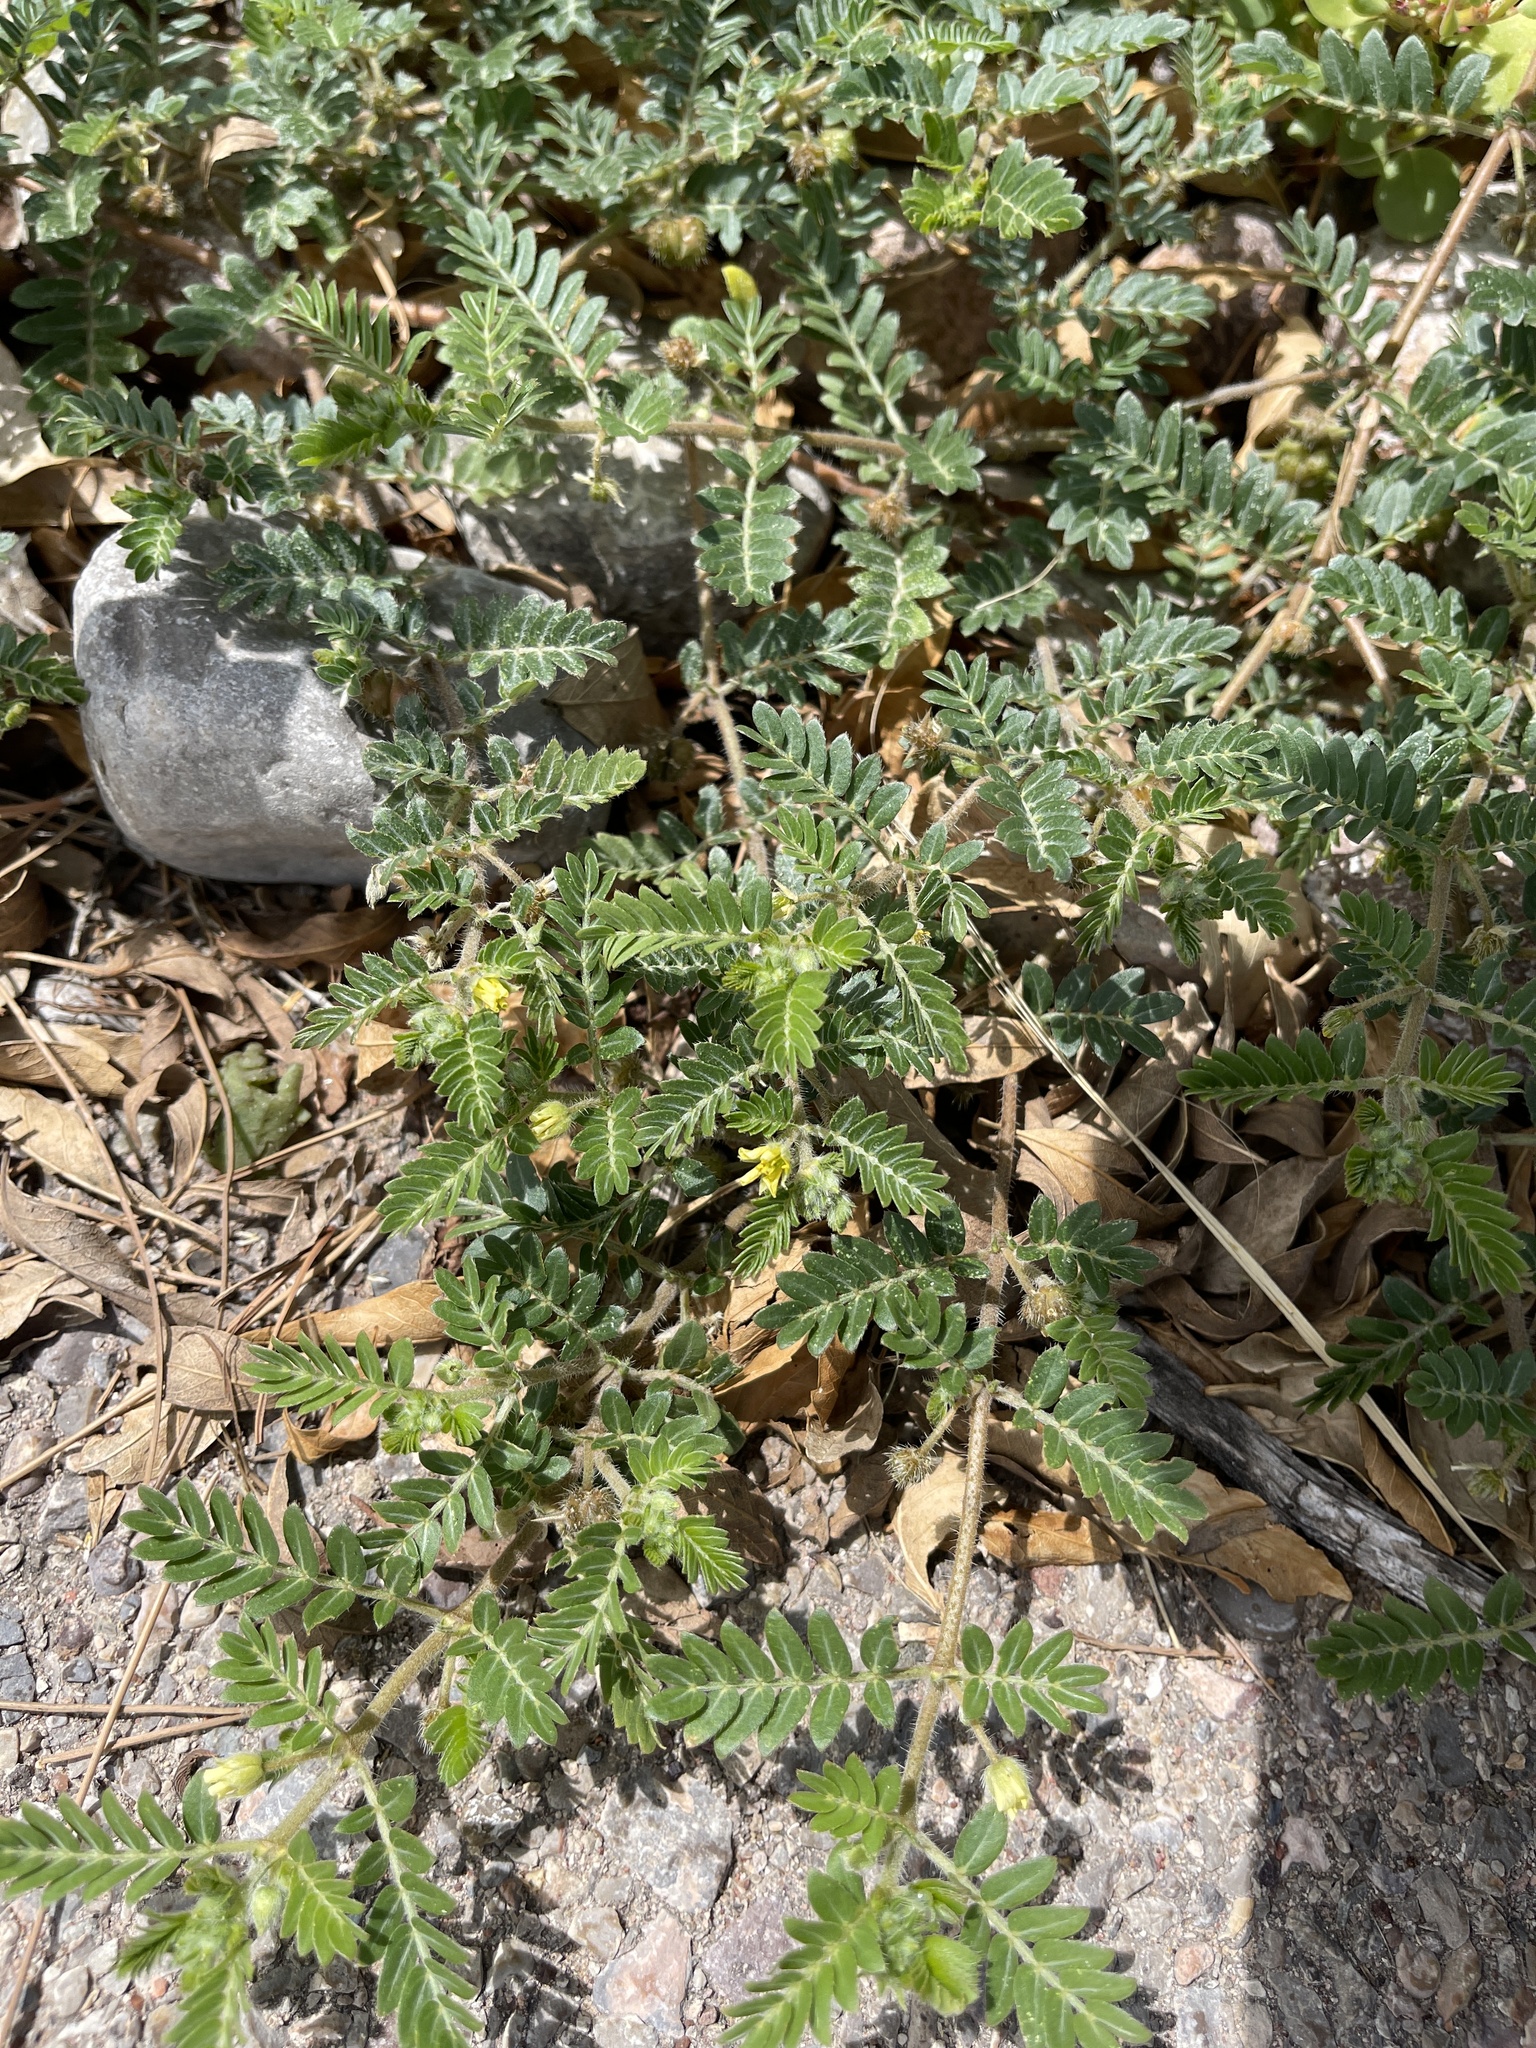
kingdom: Plantae
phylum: Tracheophyta
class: Magnoliopsida
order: Zygophyllales
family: Zygophyllaceae
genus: Tribulus
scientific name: Tribulus terrestris
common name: Puncturevine
